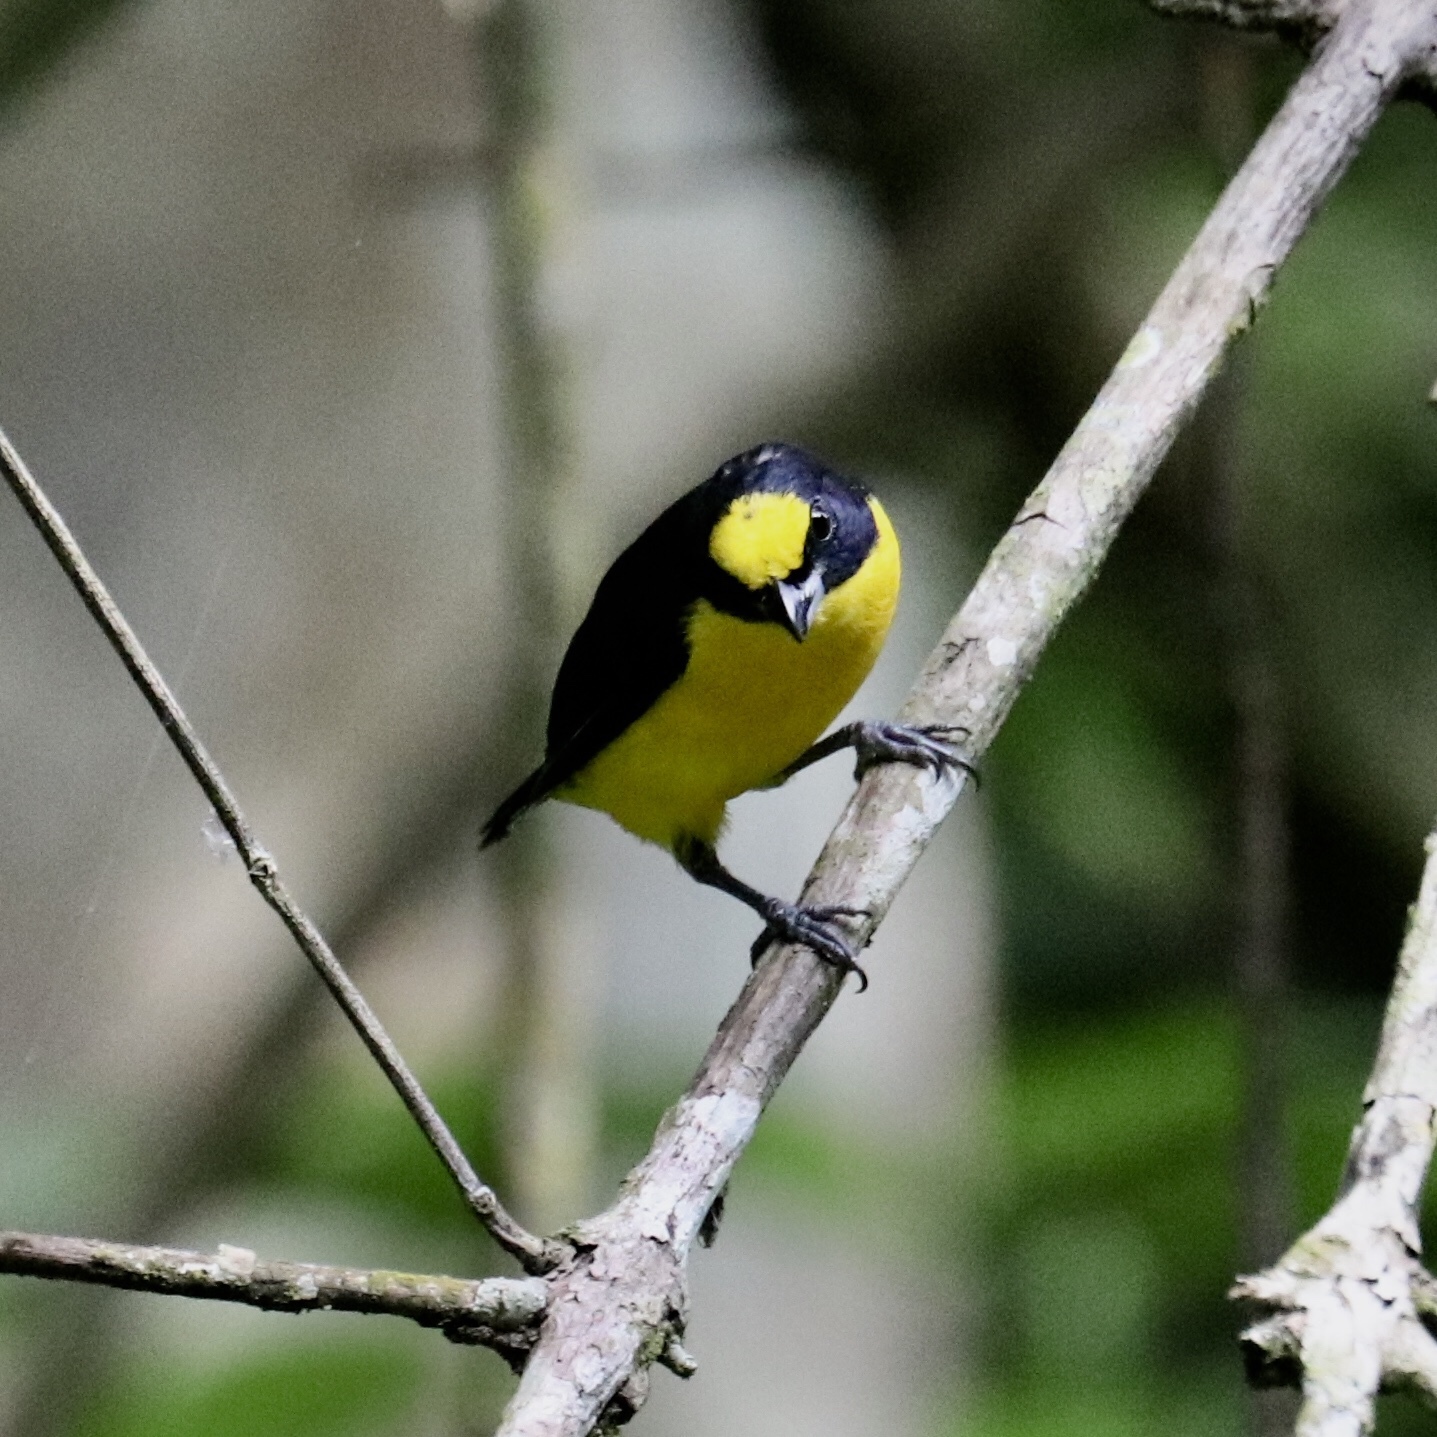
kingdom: Animalia
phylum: Chordata
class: Aves
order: Passeriformes
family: Fringillidae
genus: Euphonia
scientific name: Euphonia laniirostris
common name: Thick-billed euphonia
